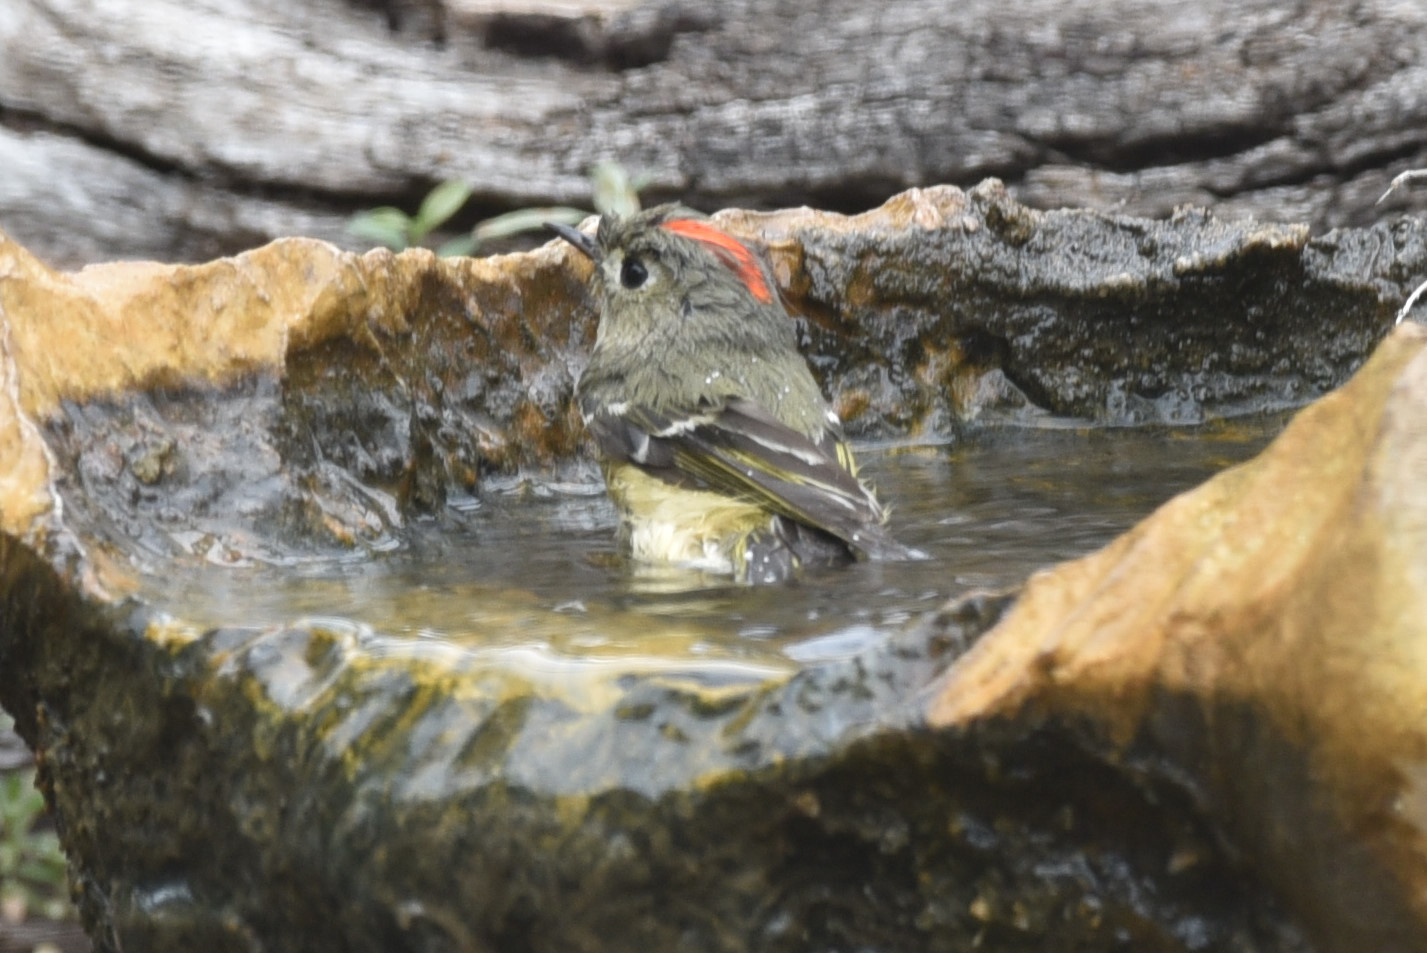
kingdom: Animalia
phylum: Chordata
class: Aves
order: Passeriformes
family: Regulidae
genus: Regulus
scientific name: Regulus calendula
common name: Ruby-crowned kinglet
